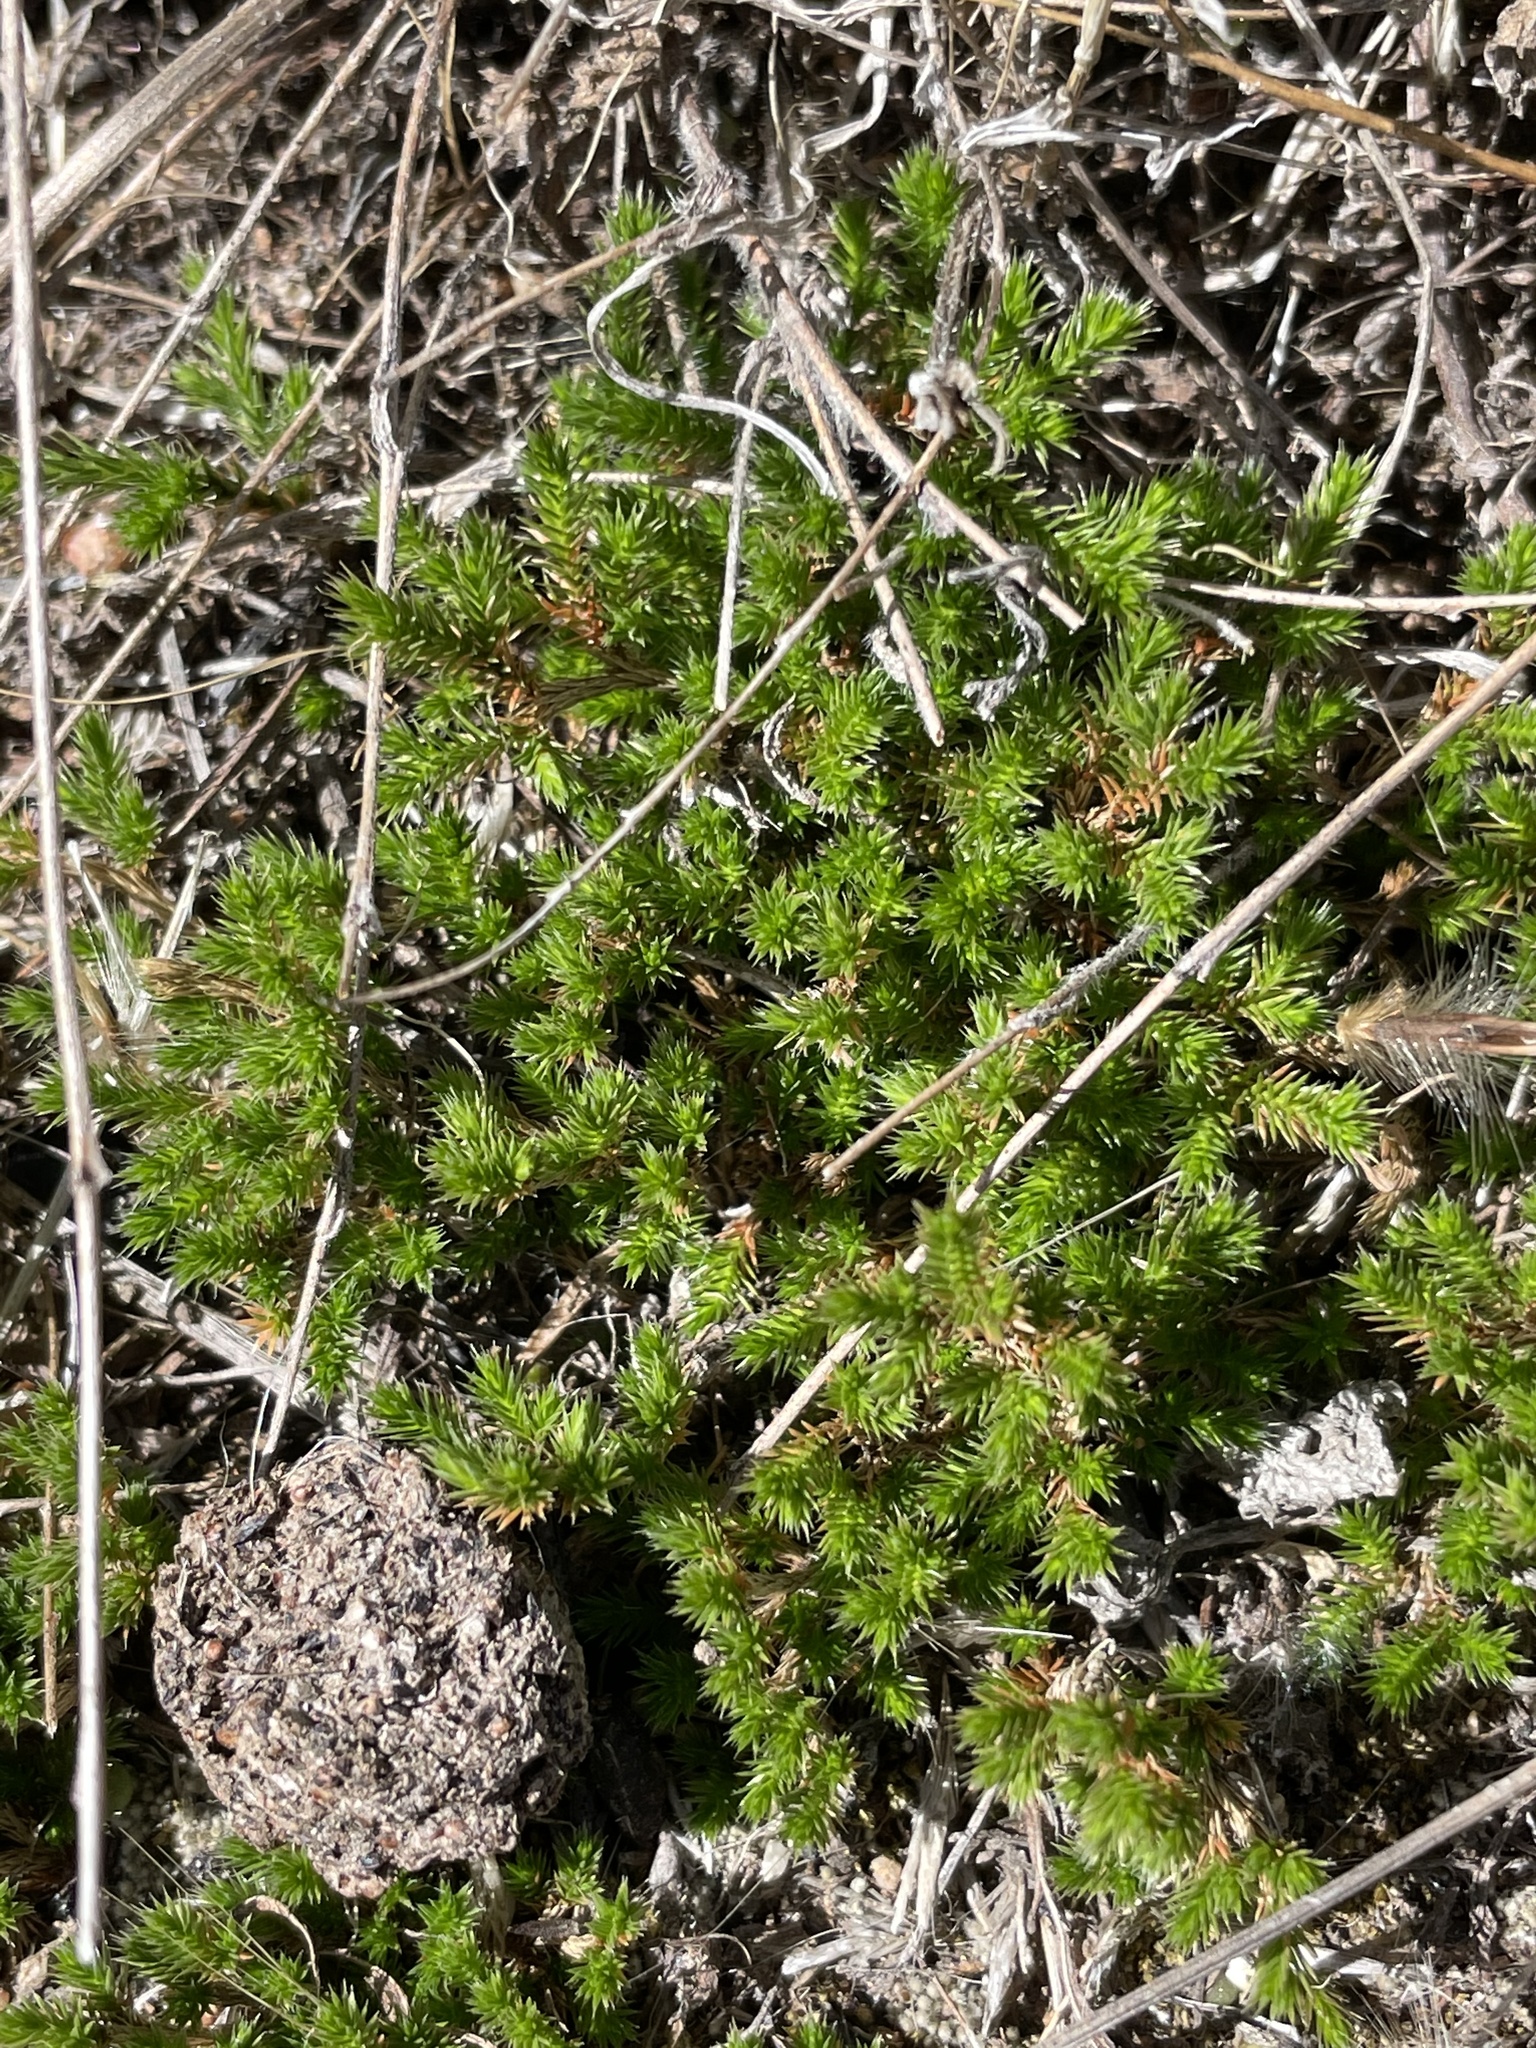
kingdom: Plantae
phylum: Tracheophyta
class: Lycopodiopsida
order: Selaginellales
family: Selaginellaceae
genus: Selaginella
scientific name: Selaginella bigelovii
